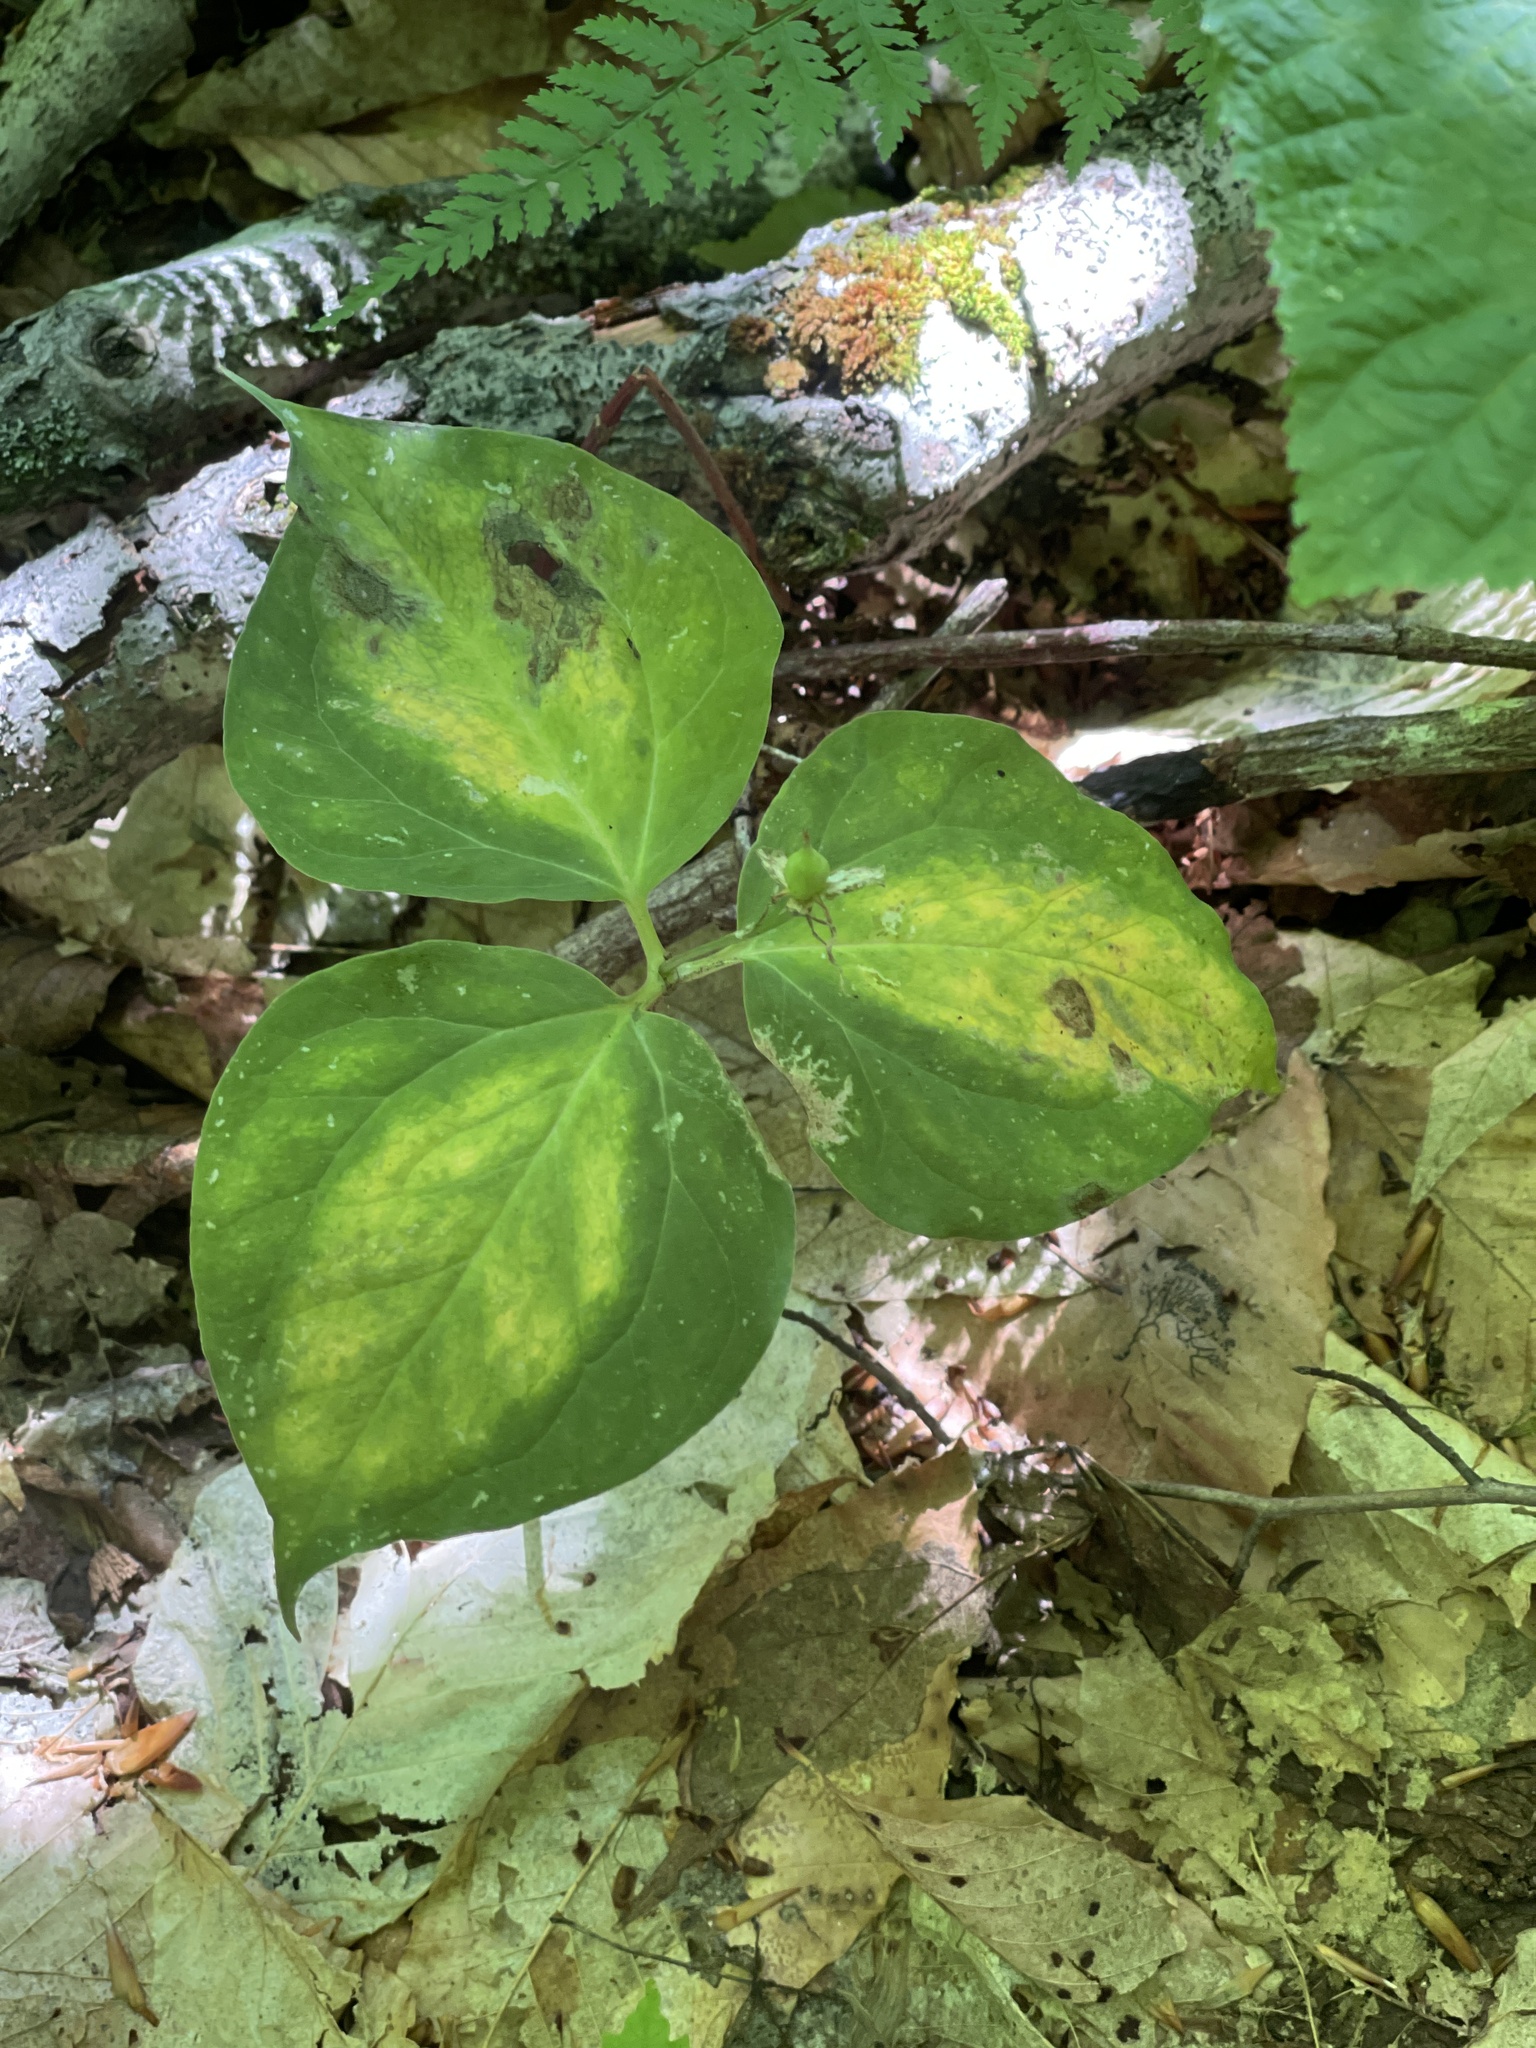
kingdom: Plantae
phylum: Tracheophyta
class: Liliopsida
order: Liliales
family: Melanthiaceae
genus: Trillium
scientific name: Trillium undulatum
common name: Paint trillium
